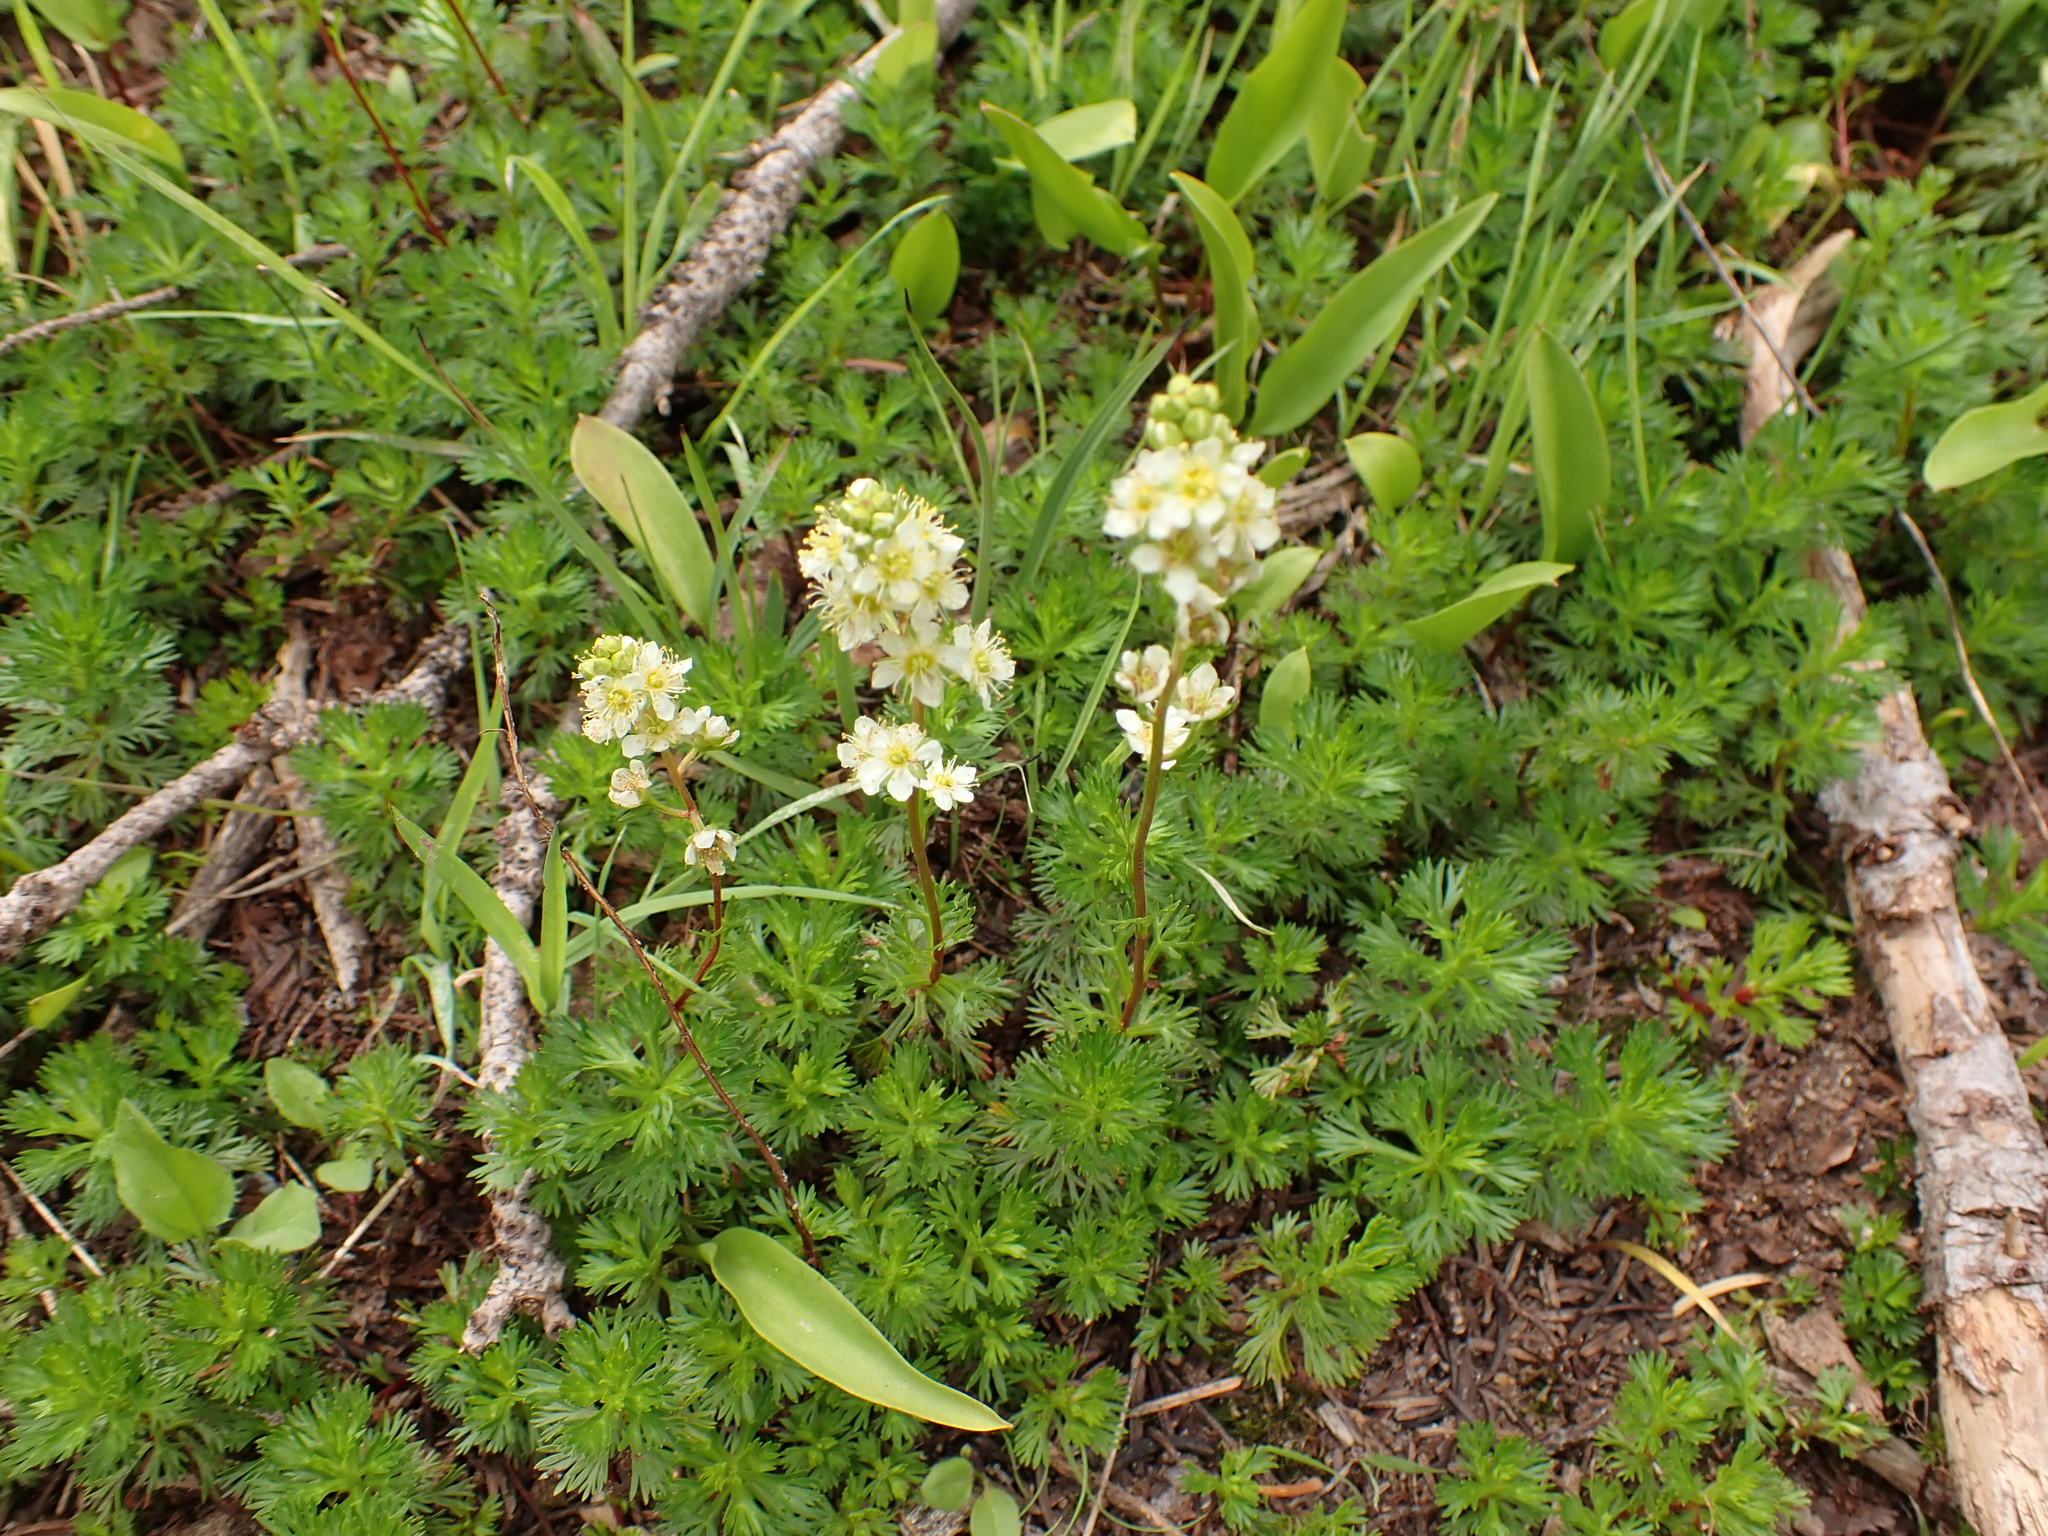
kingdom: Plantae
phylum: Tracheophyta
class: Magnoliopsida
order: Rosales
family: Rosaceae
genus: Luetkea
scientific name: Luetkea pectinata
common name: Partridgefoot
